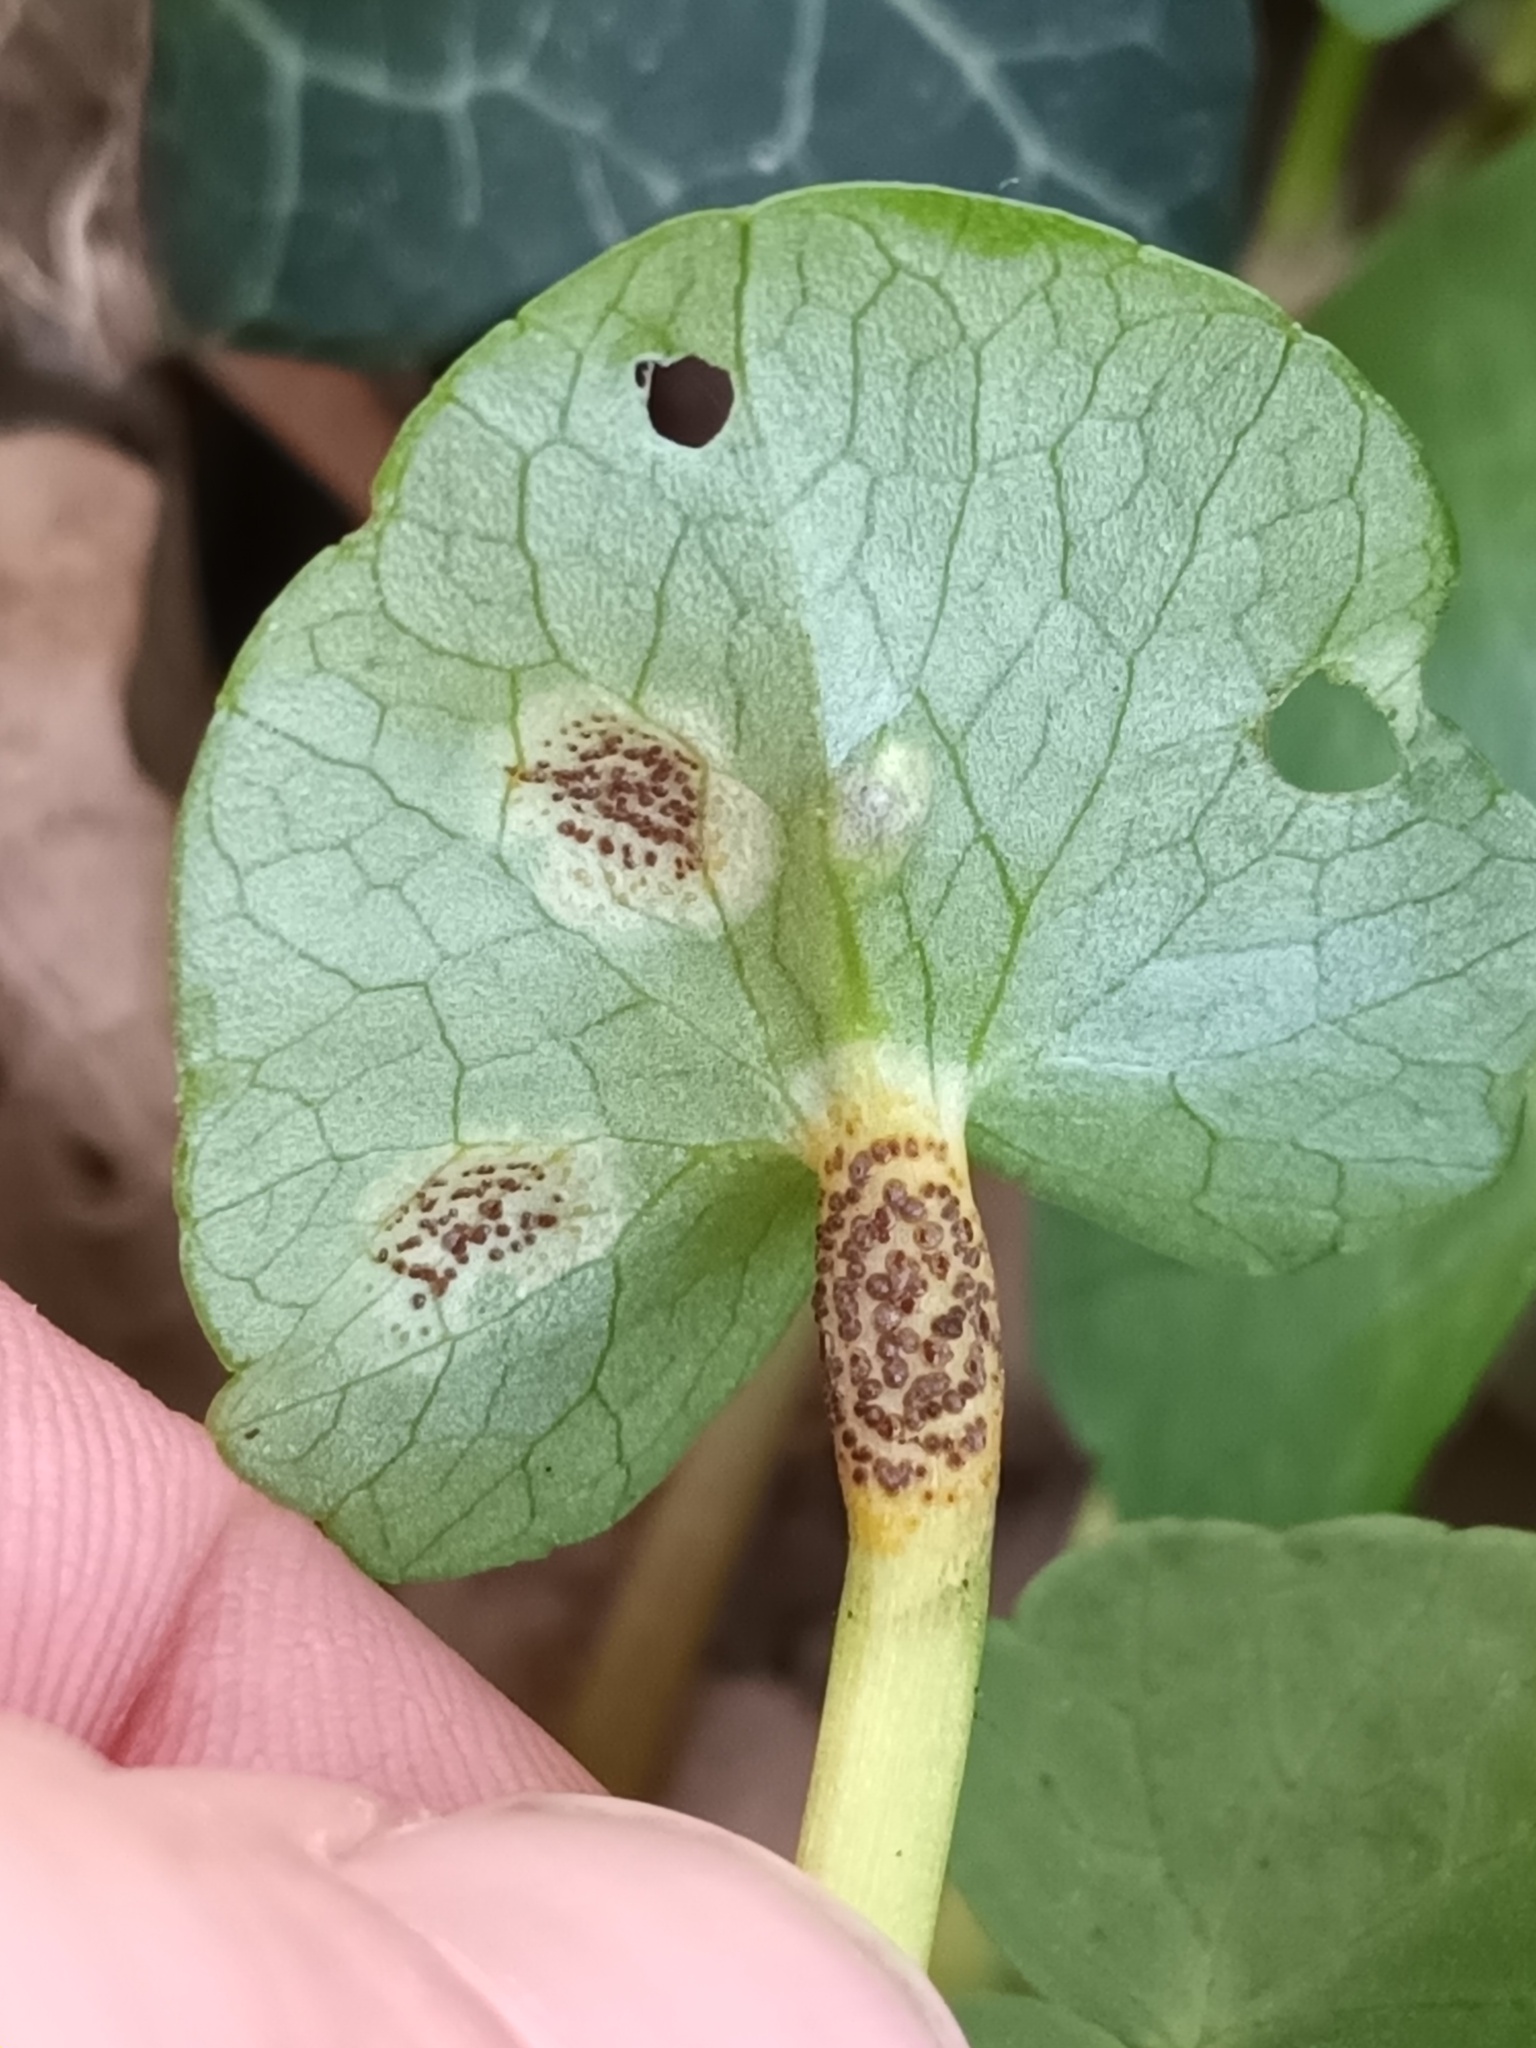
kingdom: Fungi
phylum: Basidiomycota
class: Pucciniomycetes
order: Pucciniales
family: Pucciniaceae
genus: Uromyces
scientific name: Uromyces ficariae
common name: Bitter chocolate rust
